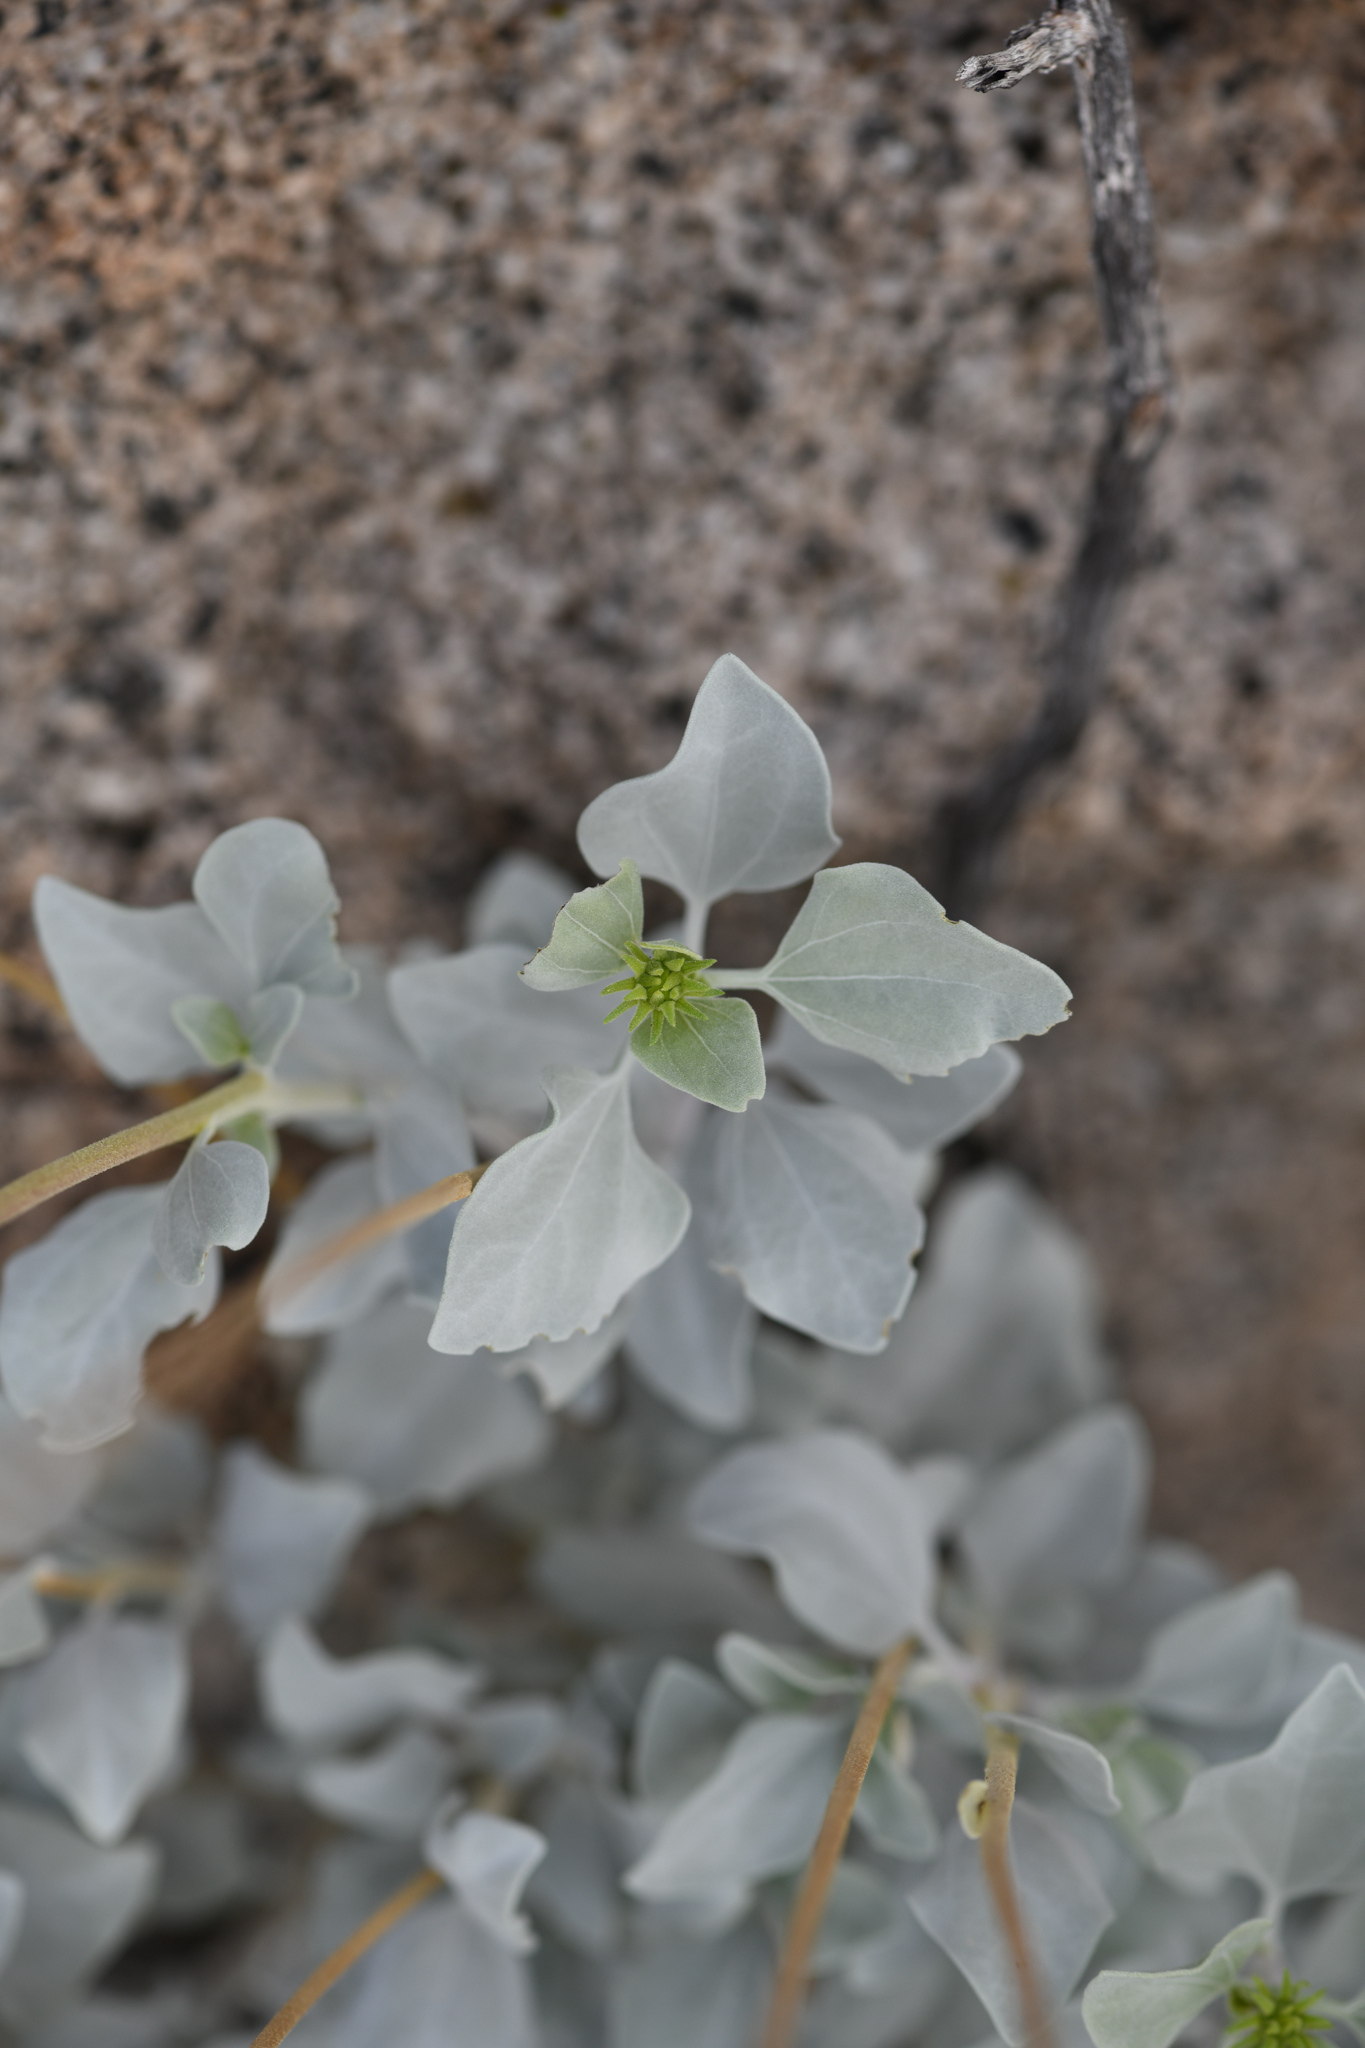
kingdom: Plantae
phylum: Tracheophyta
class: Magnoliopsida
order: Asterales
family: Asteraceae
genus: Encelia
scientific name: Encelia ravenii
